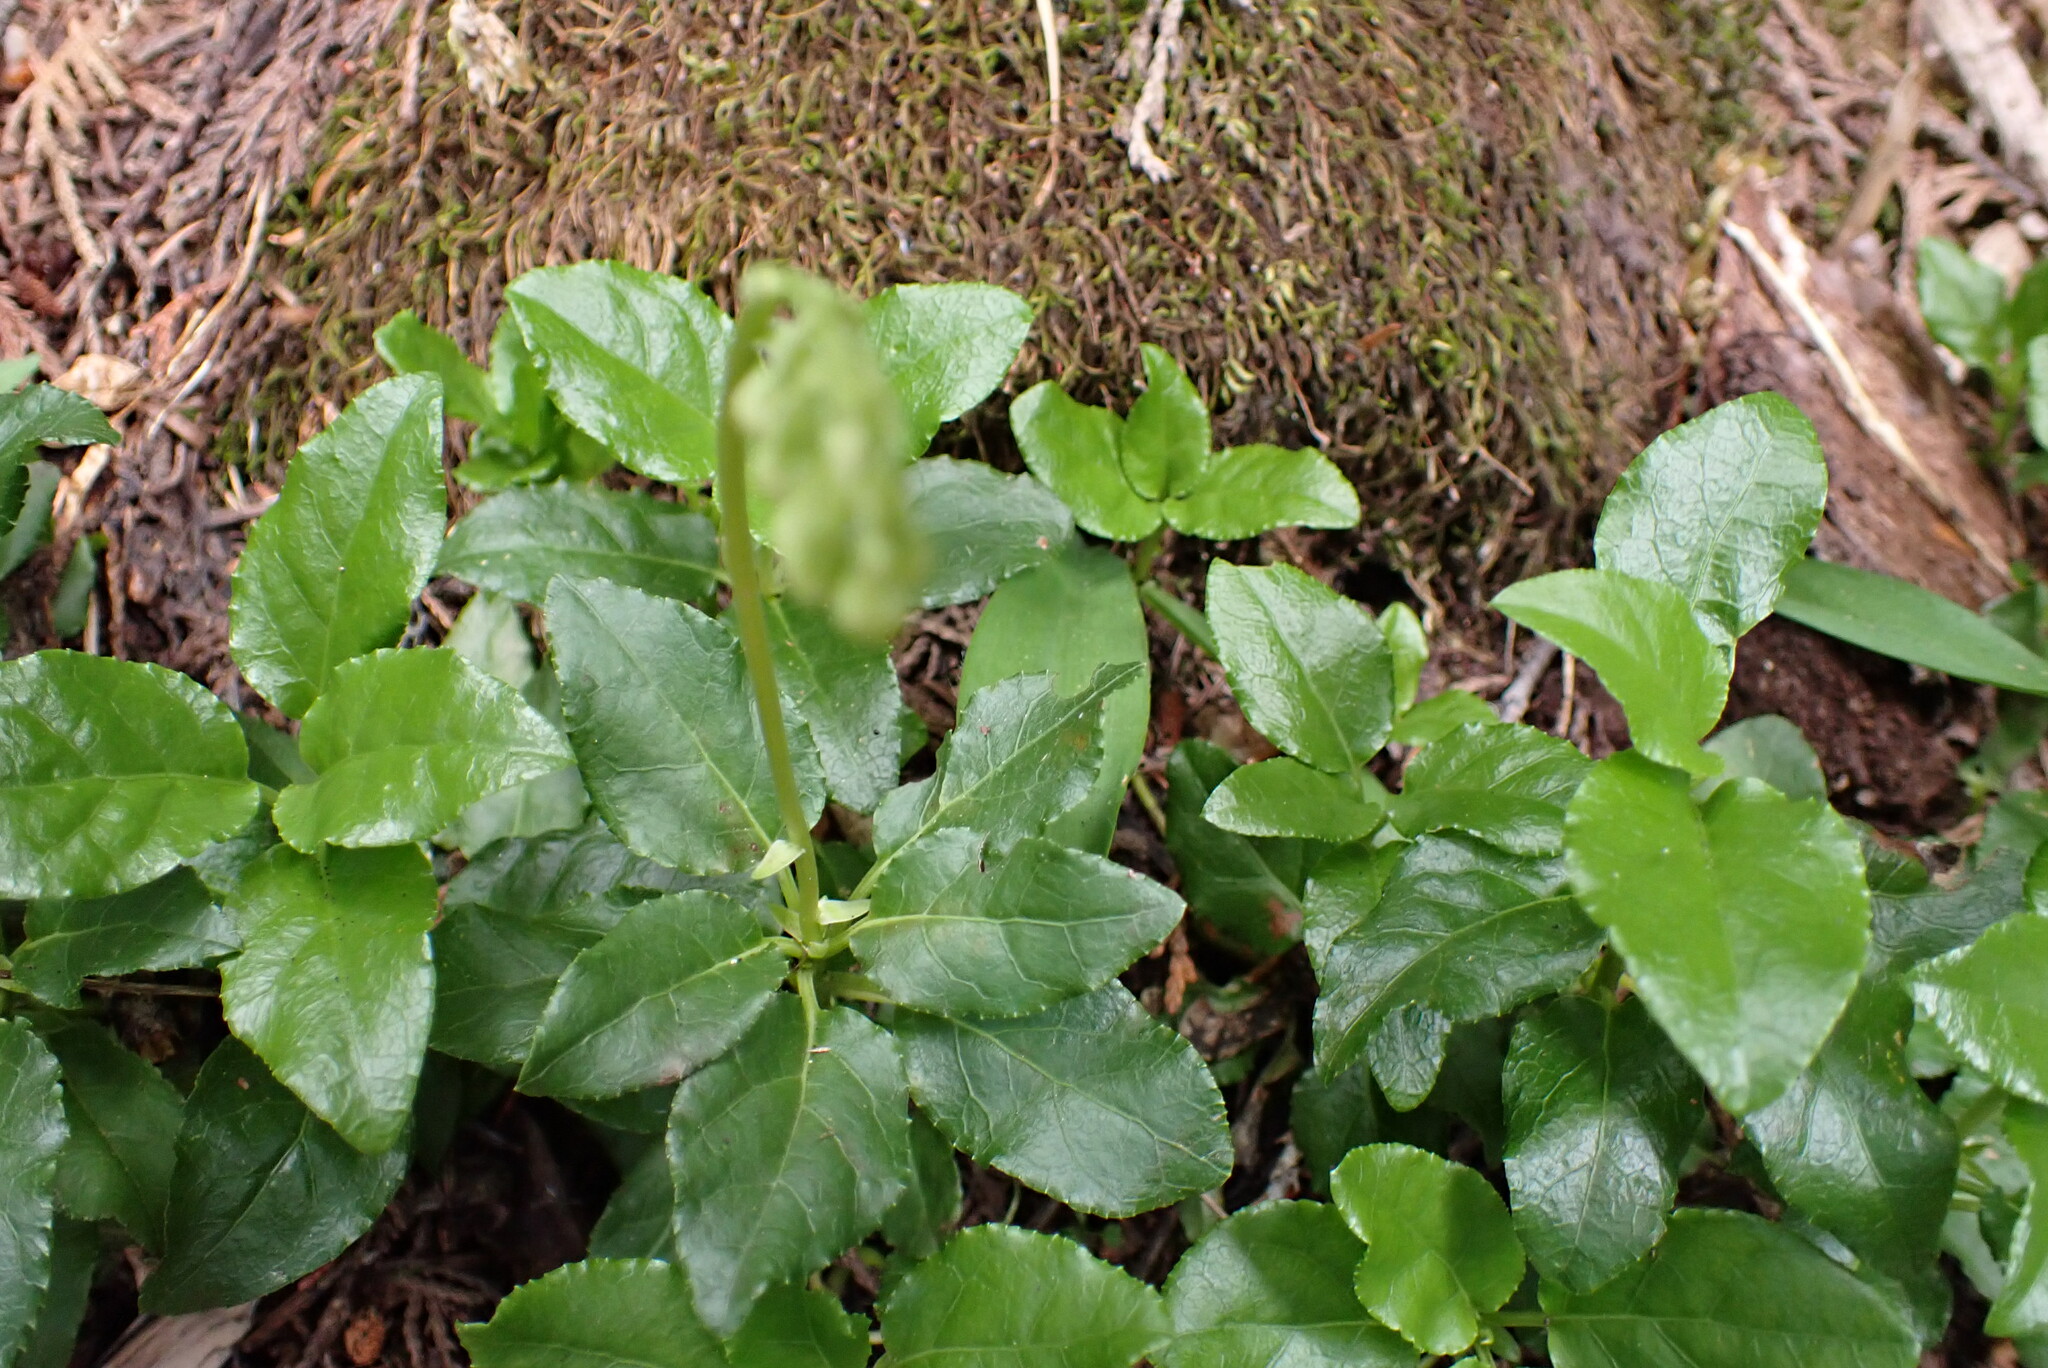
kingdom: Plantae
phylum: Tracheophyta
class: Magnoliopsida
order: Ericales
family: Ericaceae
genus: Orthilia
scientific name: Orthilia secunda
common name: One-sided orthilia
